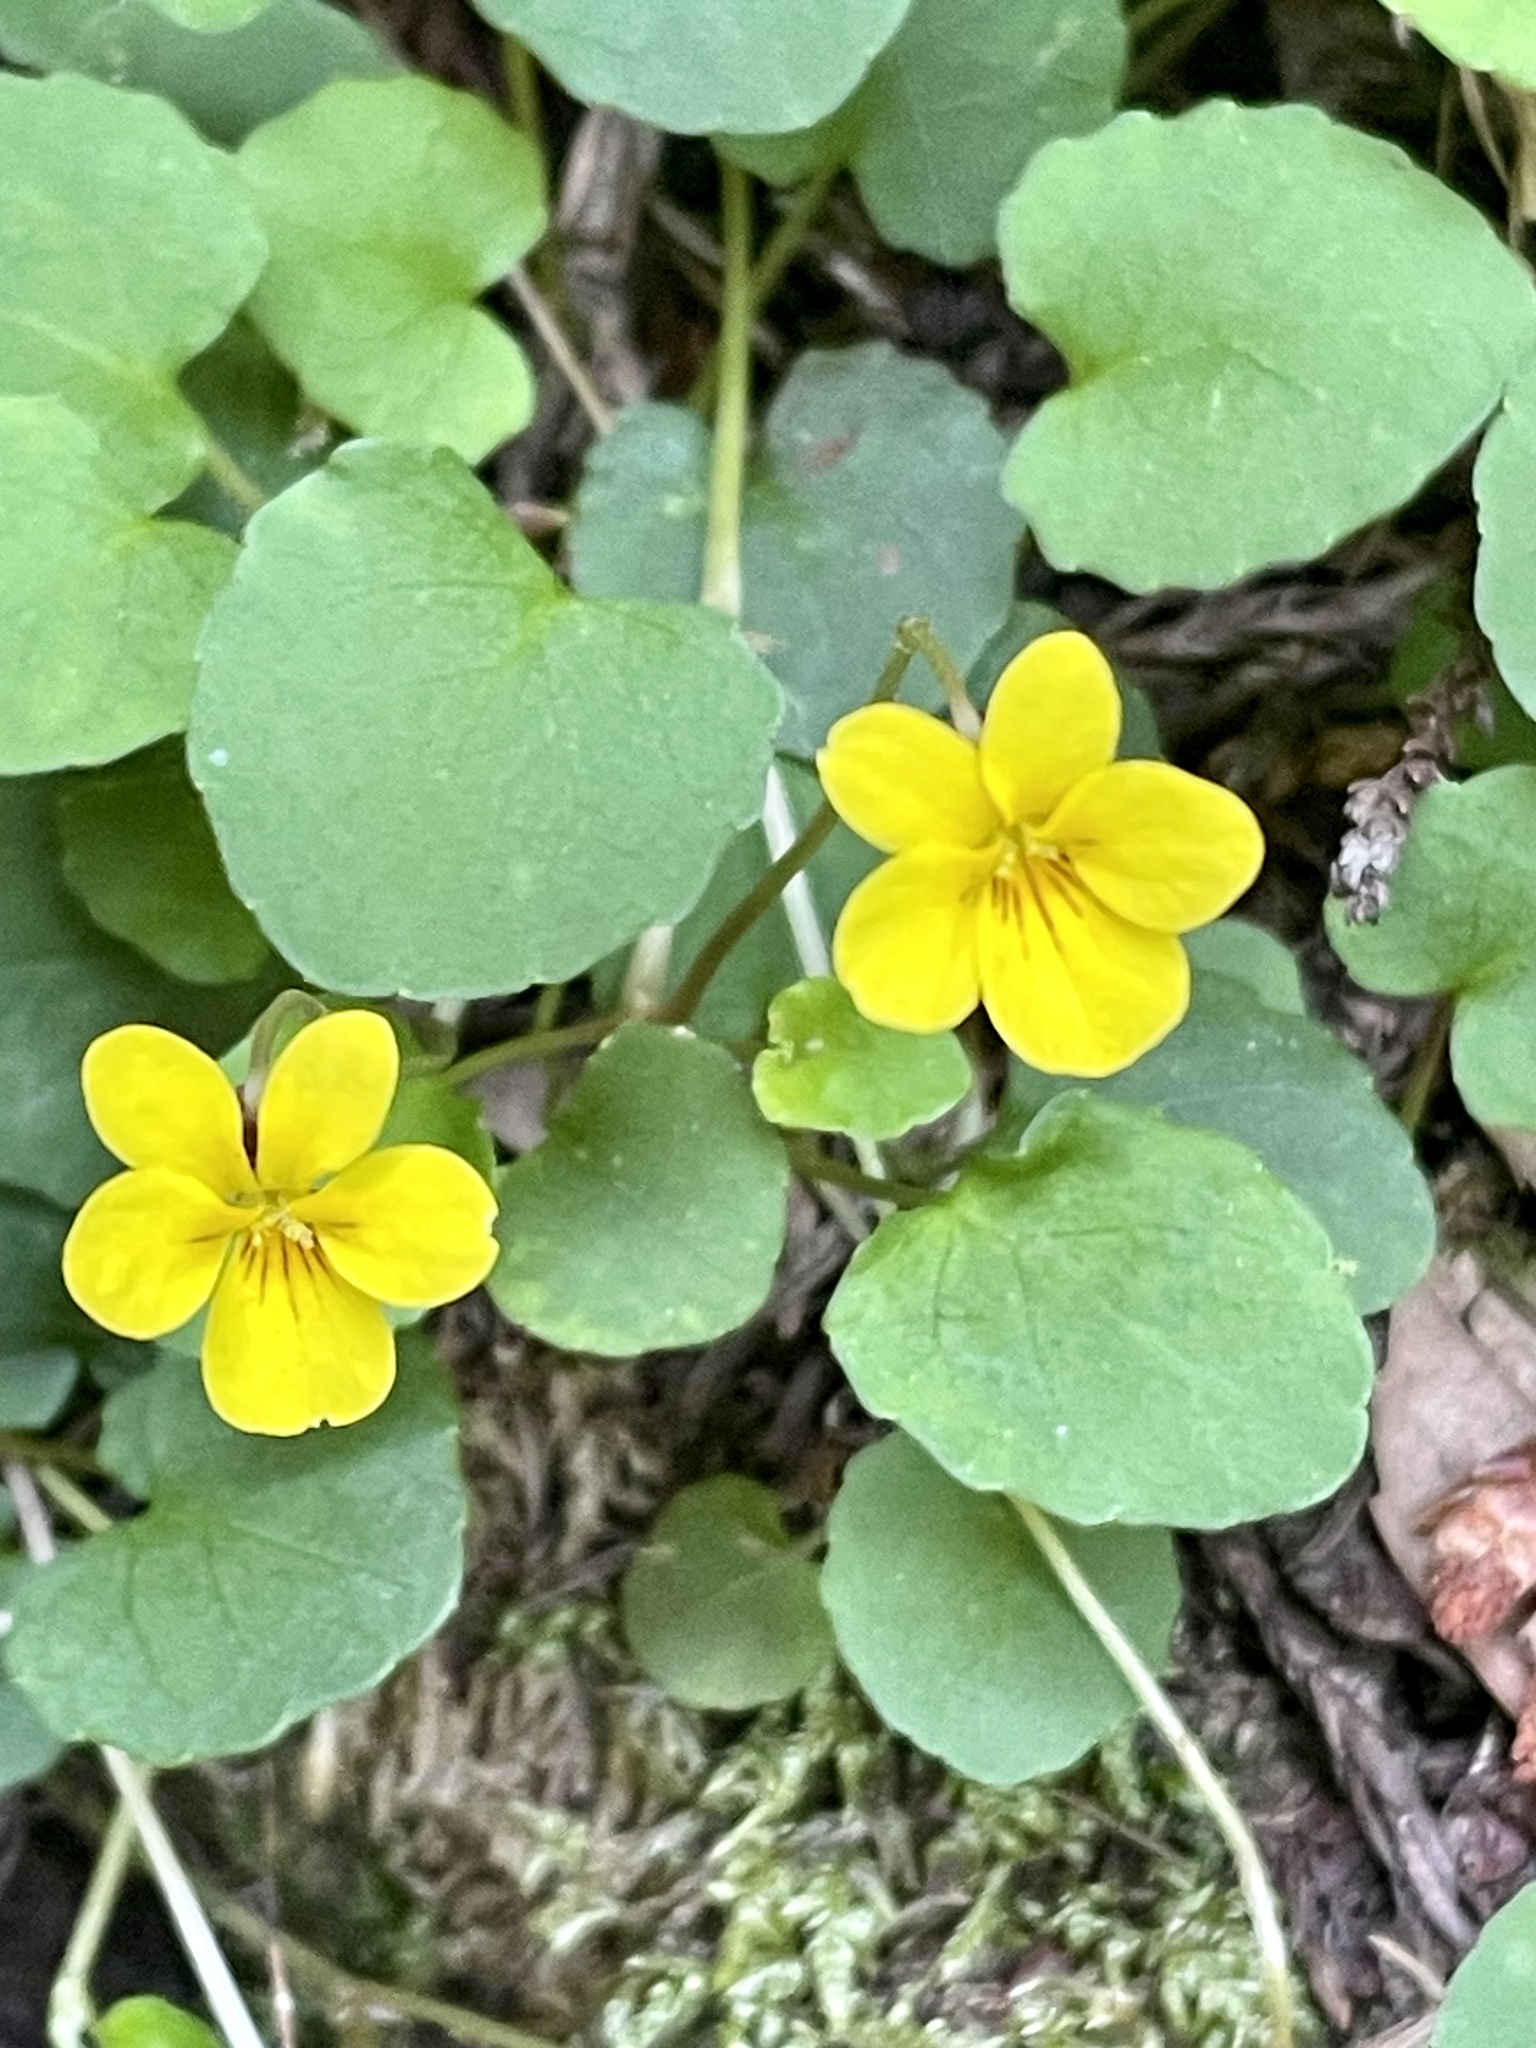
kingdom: Plantae
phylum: Tracheophyta
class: Magnoliopsida
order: Malpighiales
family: Violaceae
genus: Viola
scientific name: Viola sempervirens
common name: Evergreen violet
